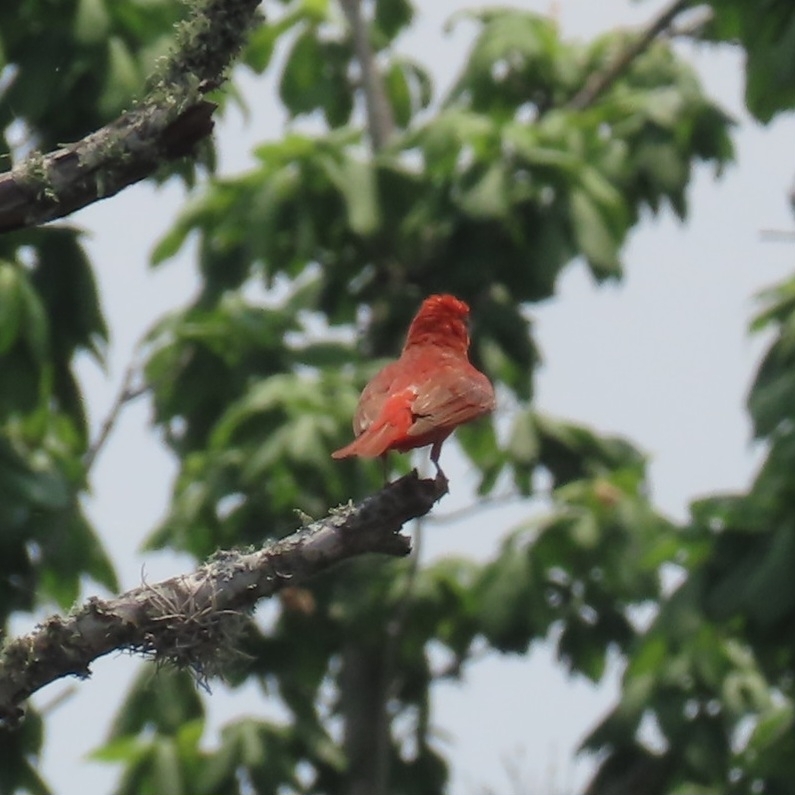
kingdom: Animalia
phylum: Chordata
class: Aves
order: Passeriformes
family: Cardinalidae
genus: Piranga
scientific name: Piranga rubra
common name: Summer tanager
